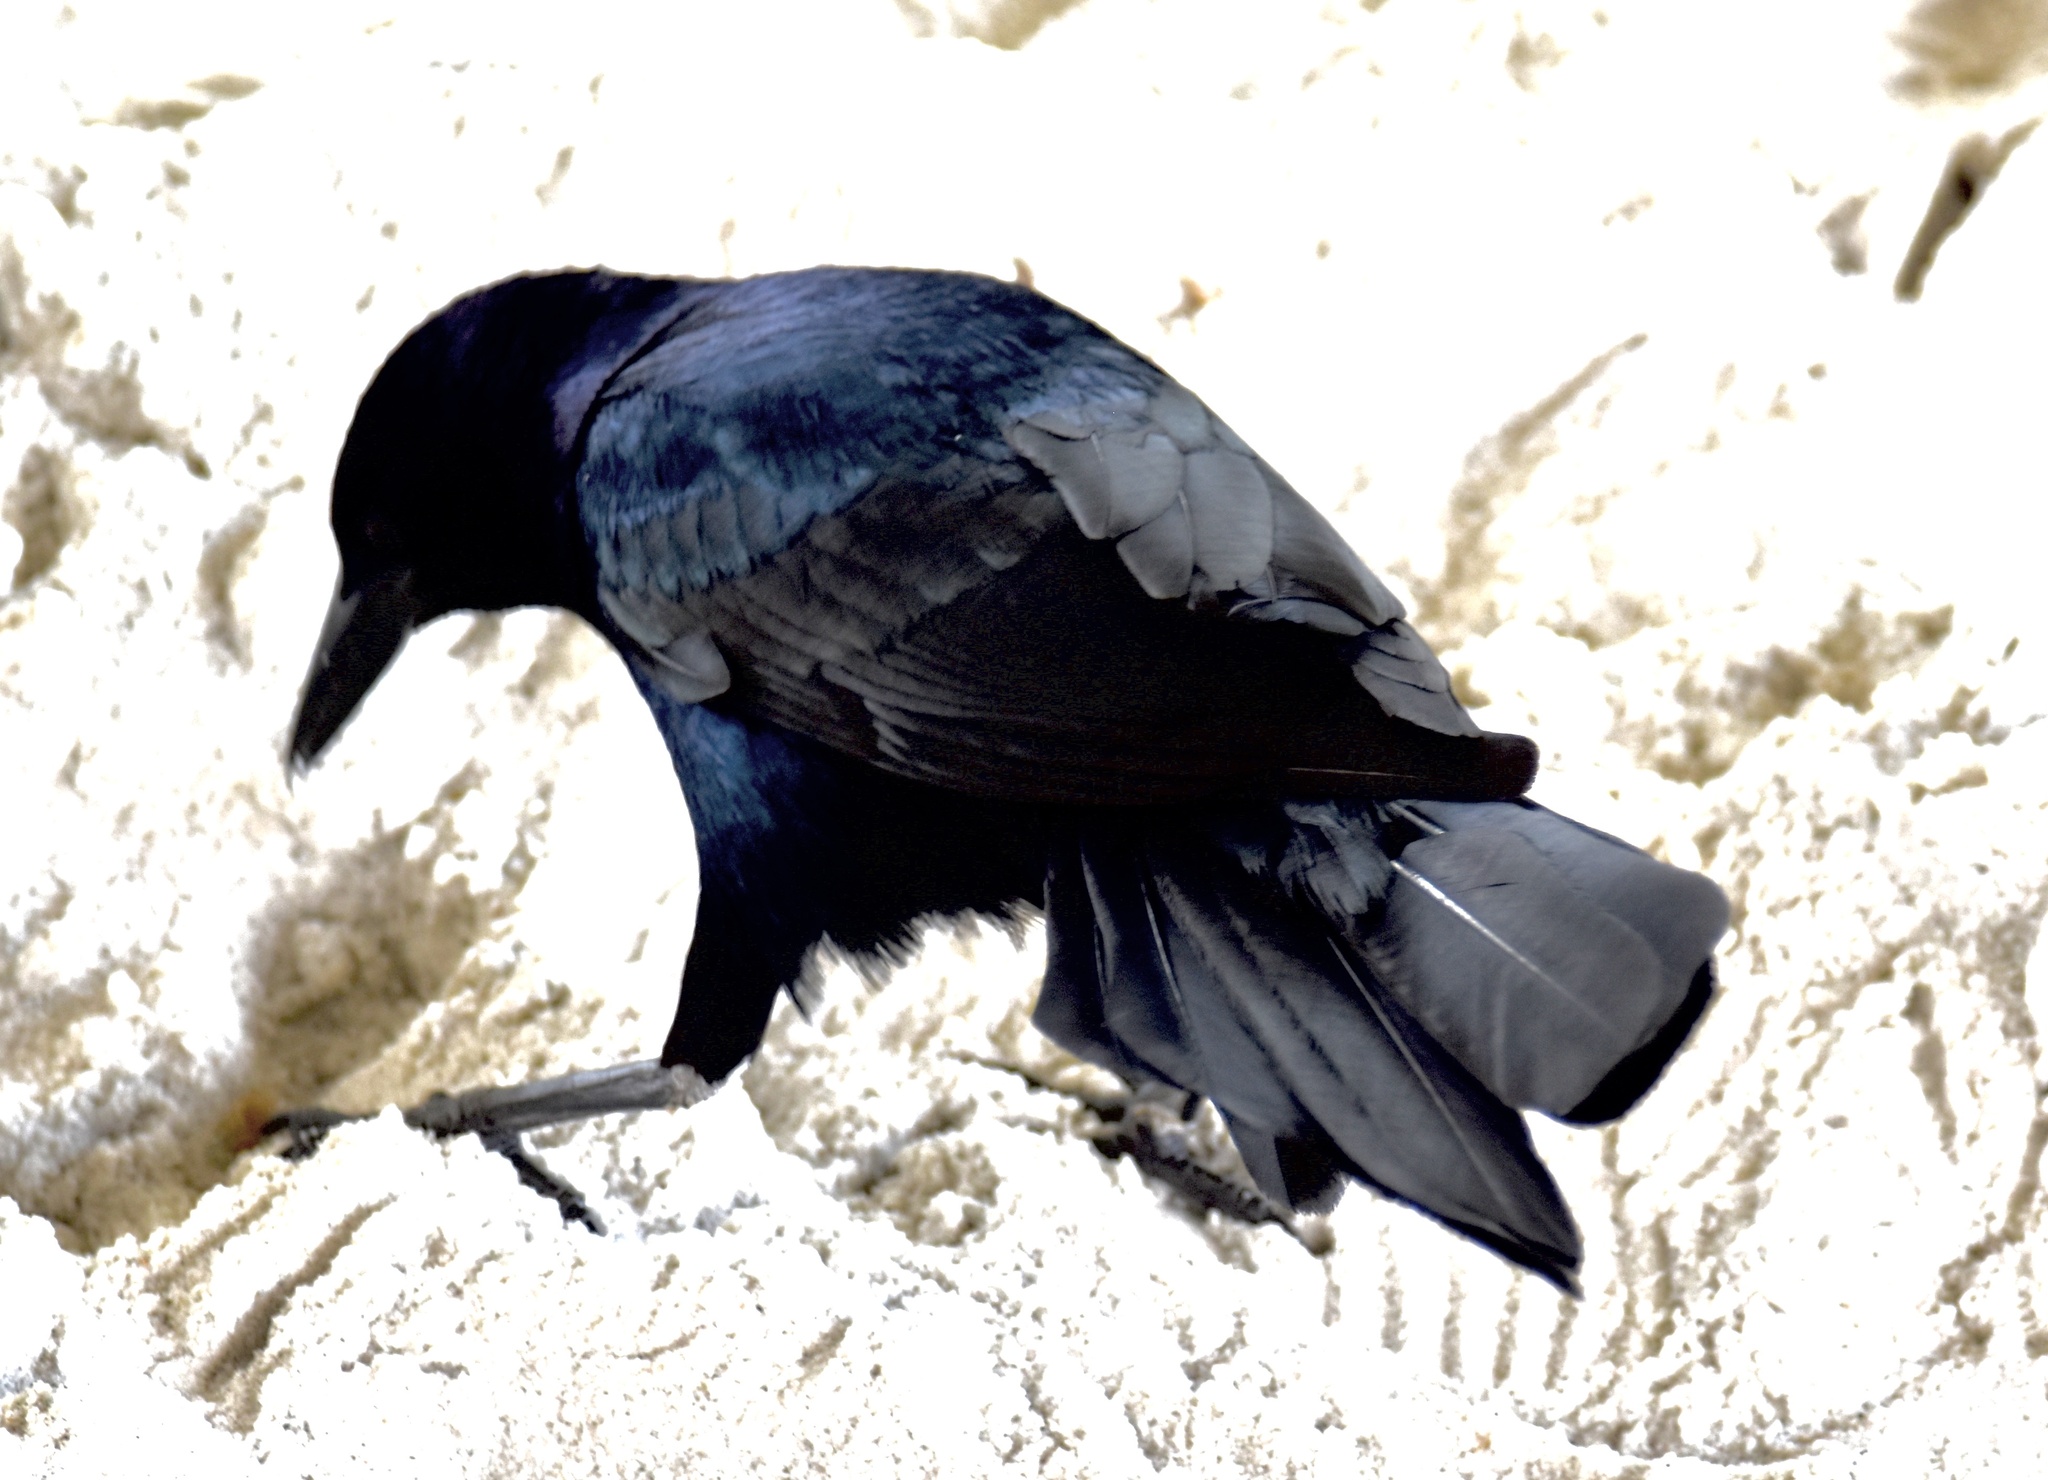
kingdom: Animalia
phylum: Chordata
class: Aves
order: Passeriformes
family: Icteridae
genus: Quiscalus
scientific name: Quiscalus major
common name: Boat-tailed grackle
